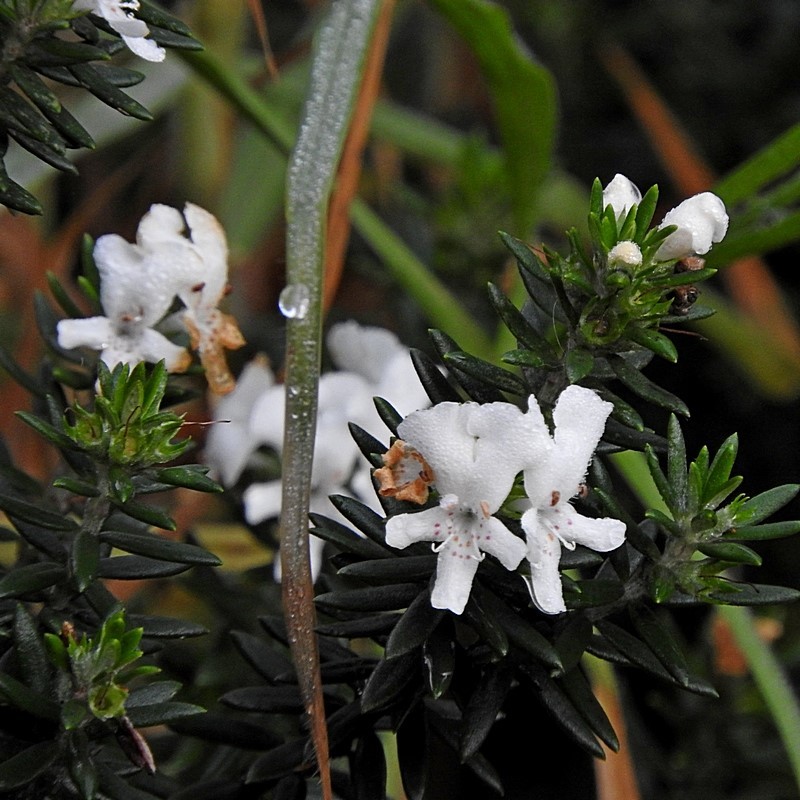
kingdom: Plantae
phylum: Tracheophyta
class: Magnoliopsida
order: Lamiales
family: Lamiaceae
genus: Westringia
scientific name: Westringia fruticosa
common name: Coastal-rosemary
